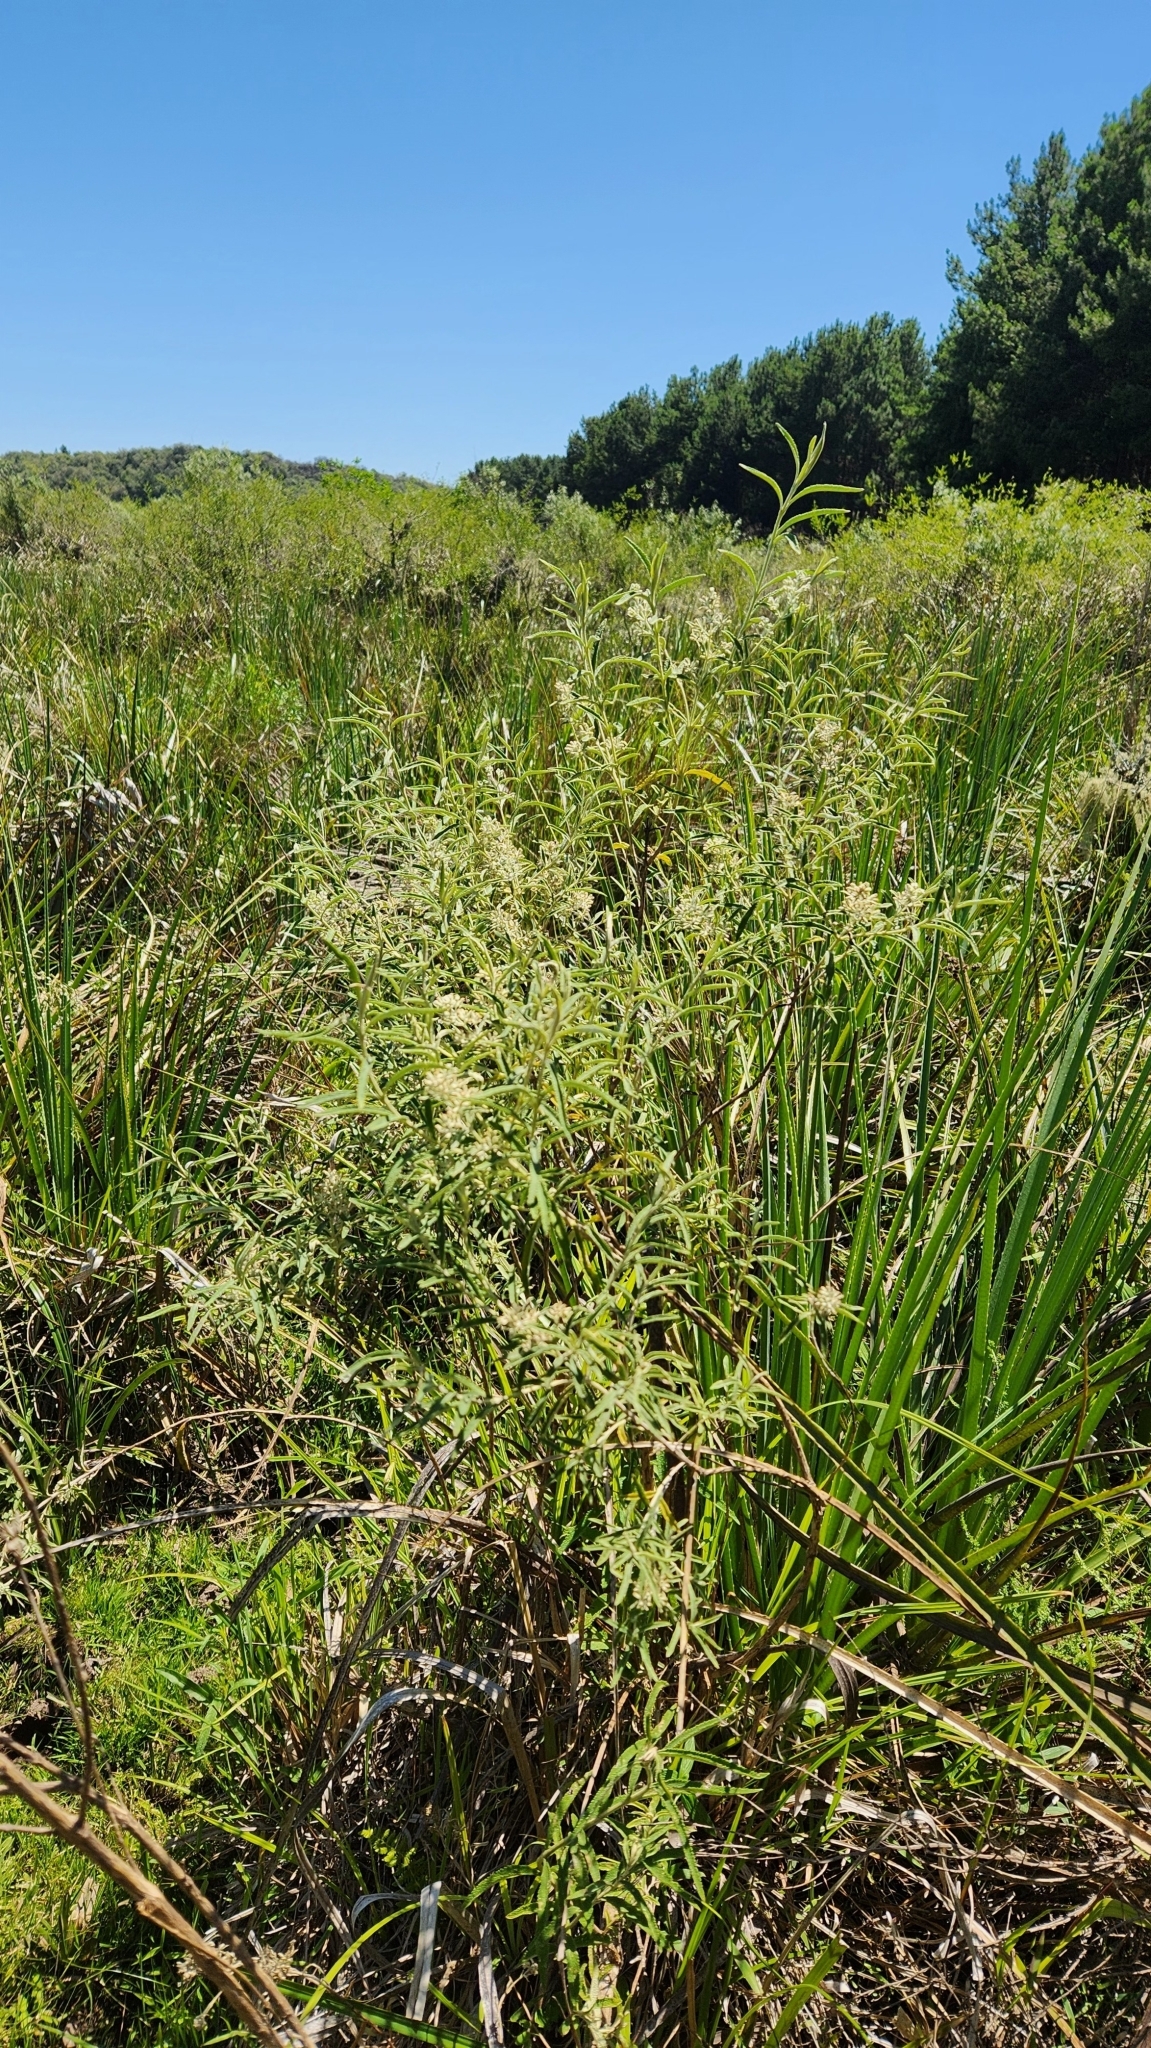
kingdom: Plantae
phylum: Tracheophyta
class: Magnoliopsida
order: Lamiales
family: Scrophulariaceae
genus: Buddleja
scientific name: Buddleja elegans
